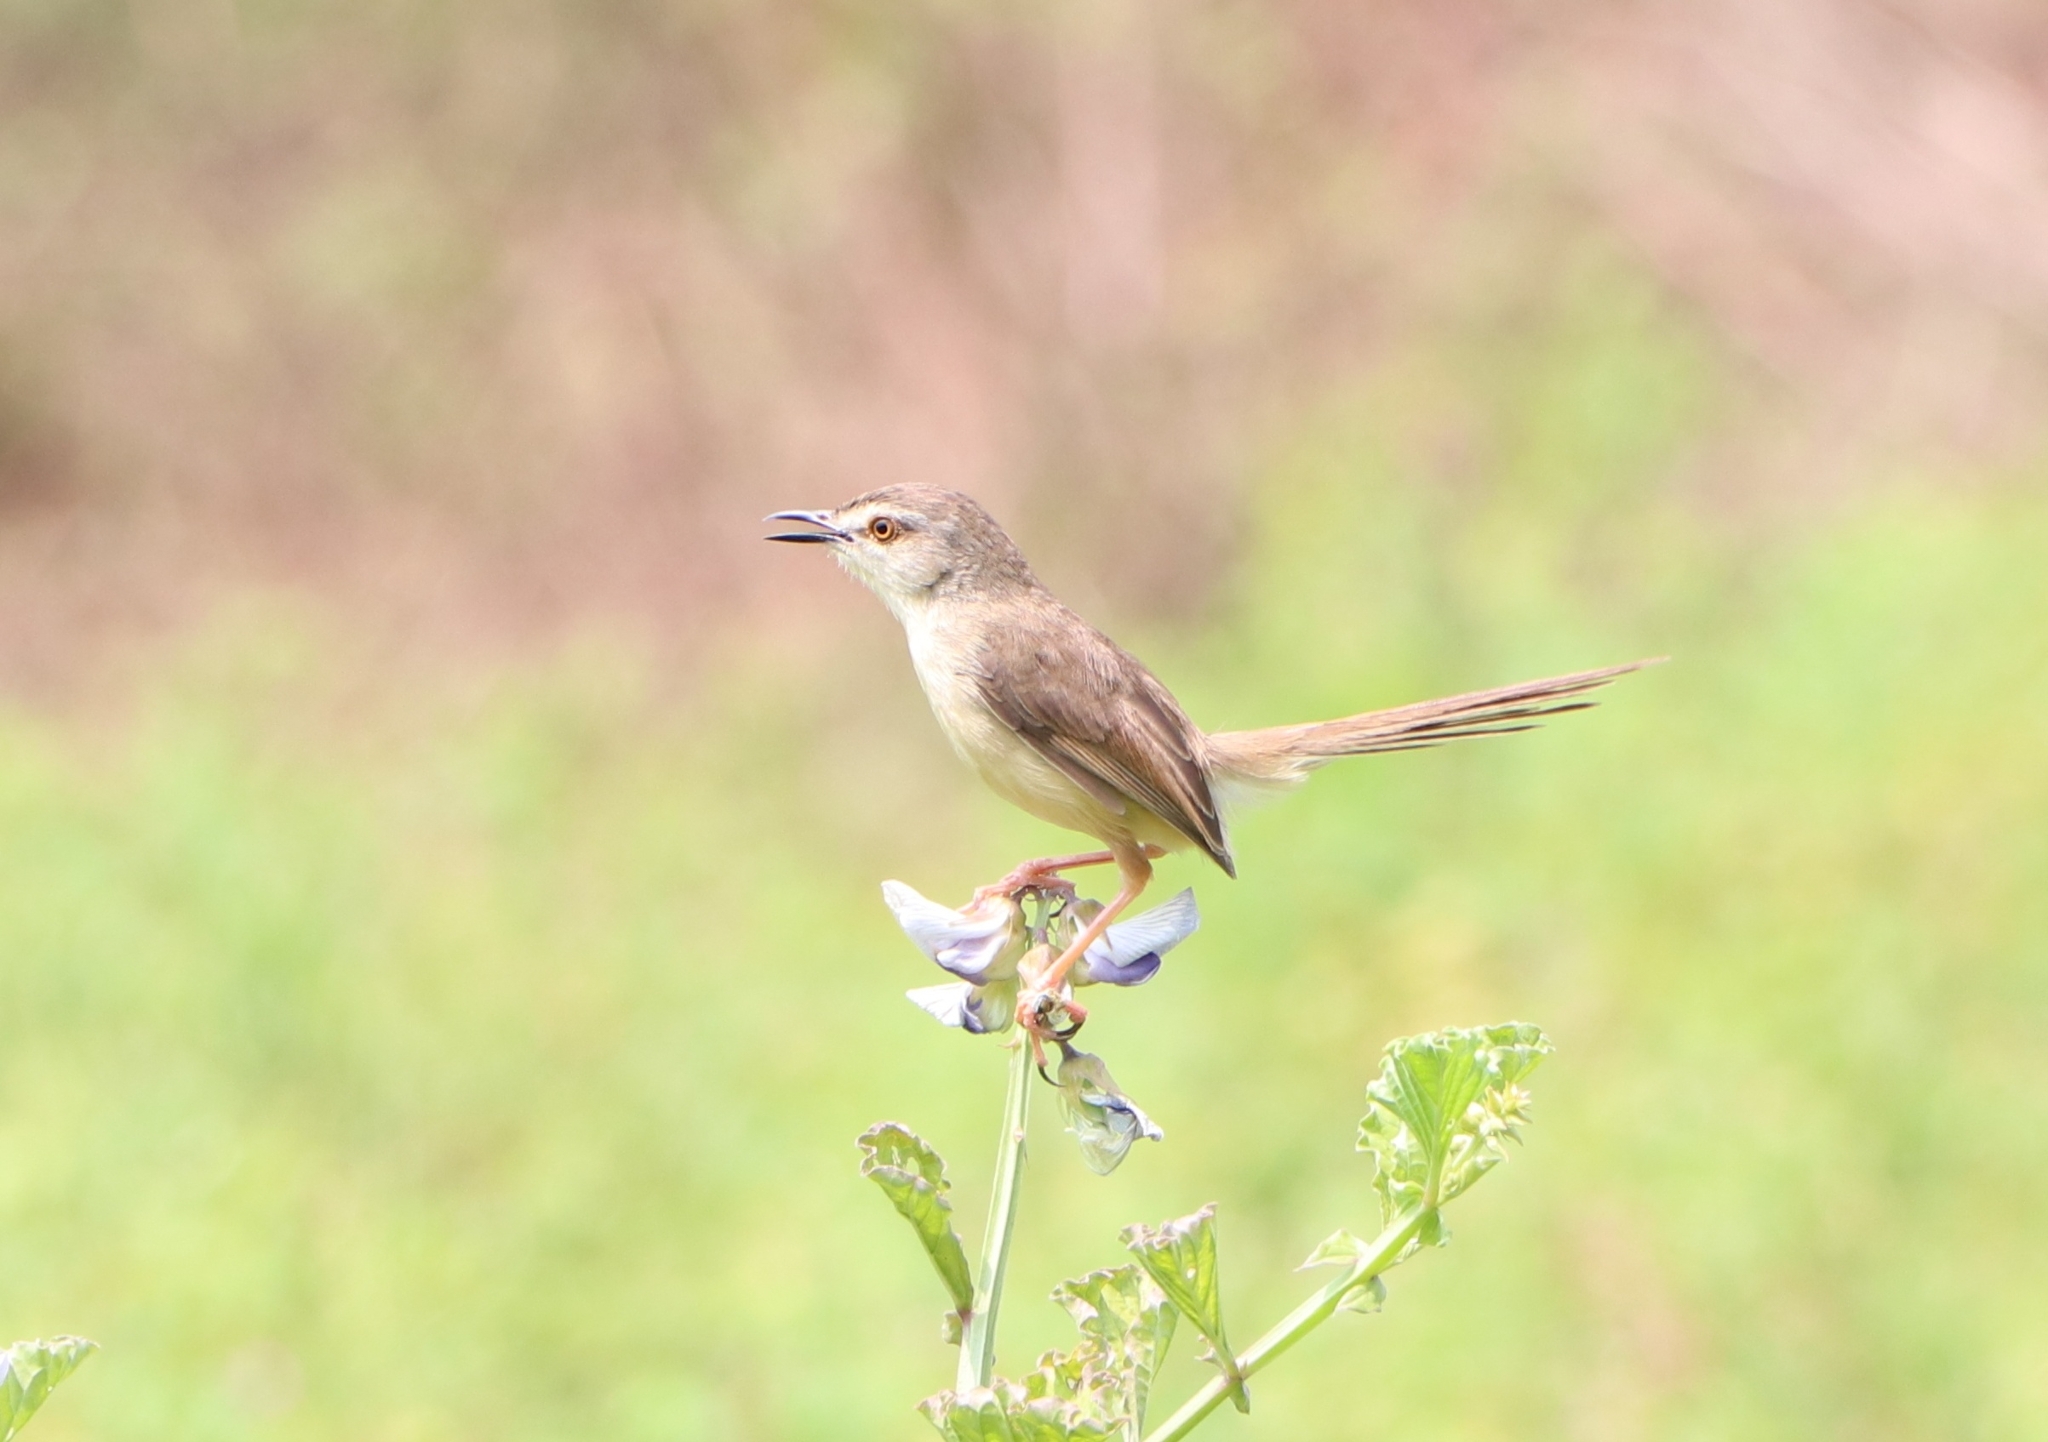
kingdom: Animalia
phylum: Chordata
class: Aves
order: Passeriformes
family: Cisticolidae
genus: Prinia
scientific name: Prinia inornata
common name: Plain prinia
